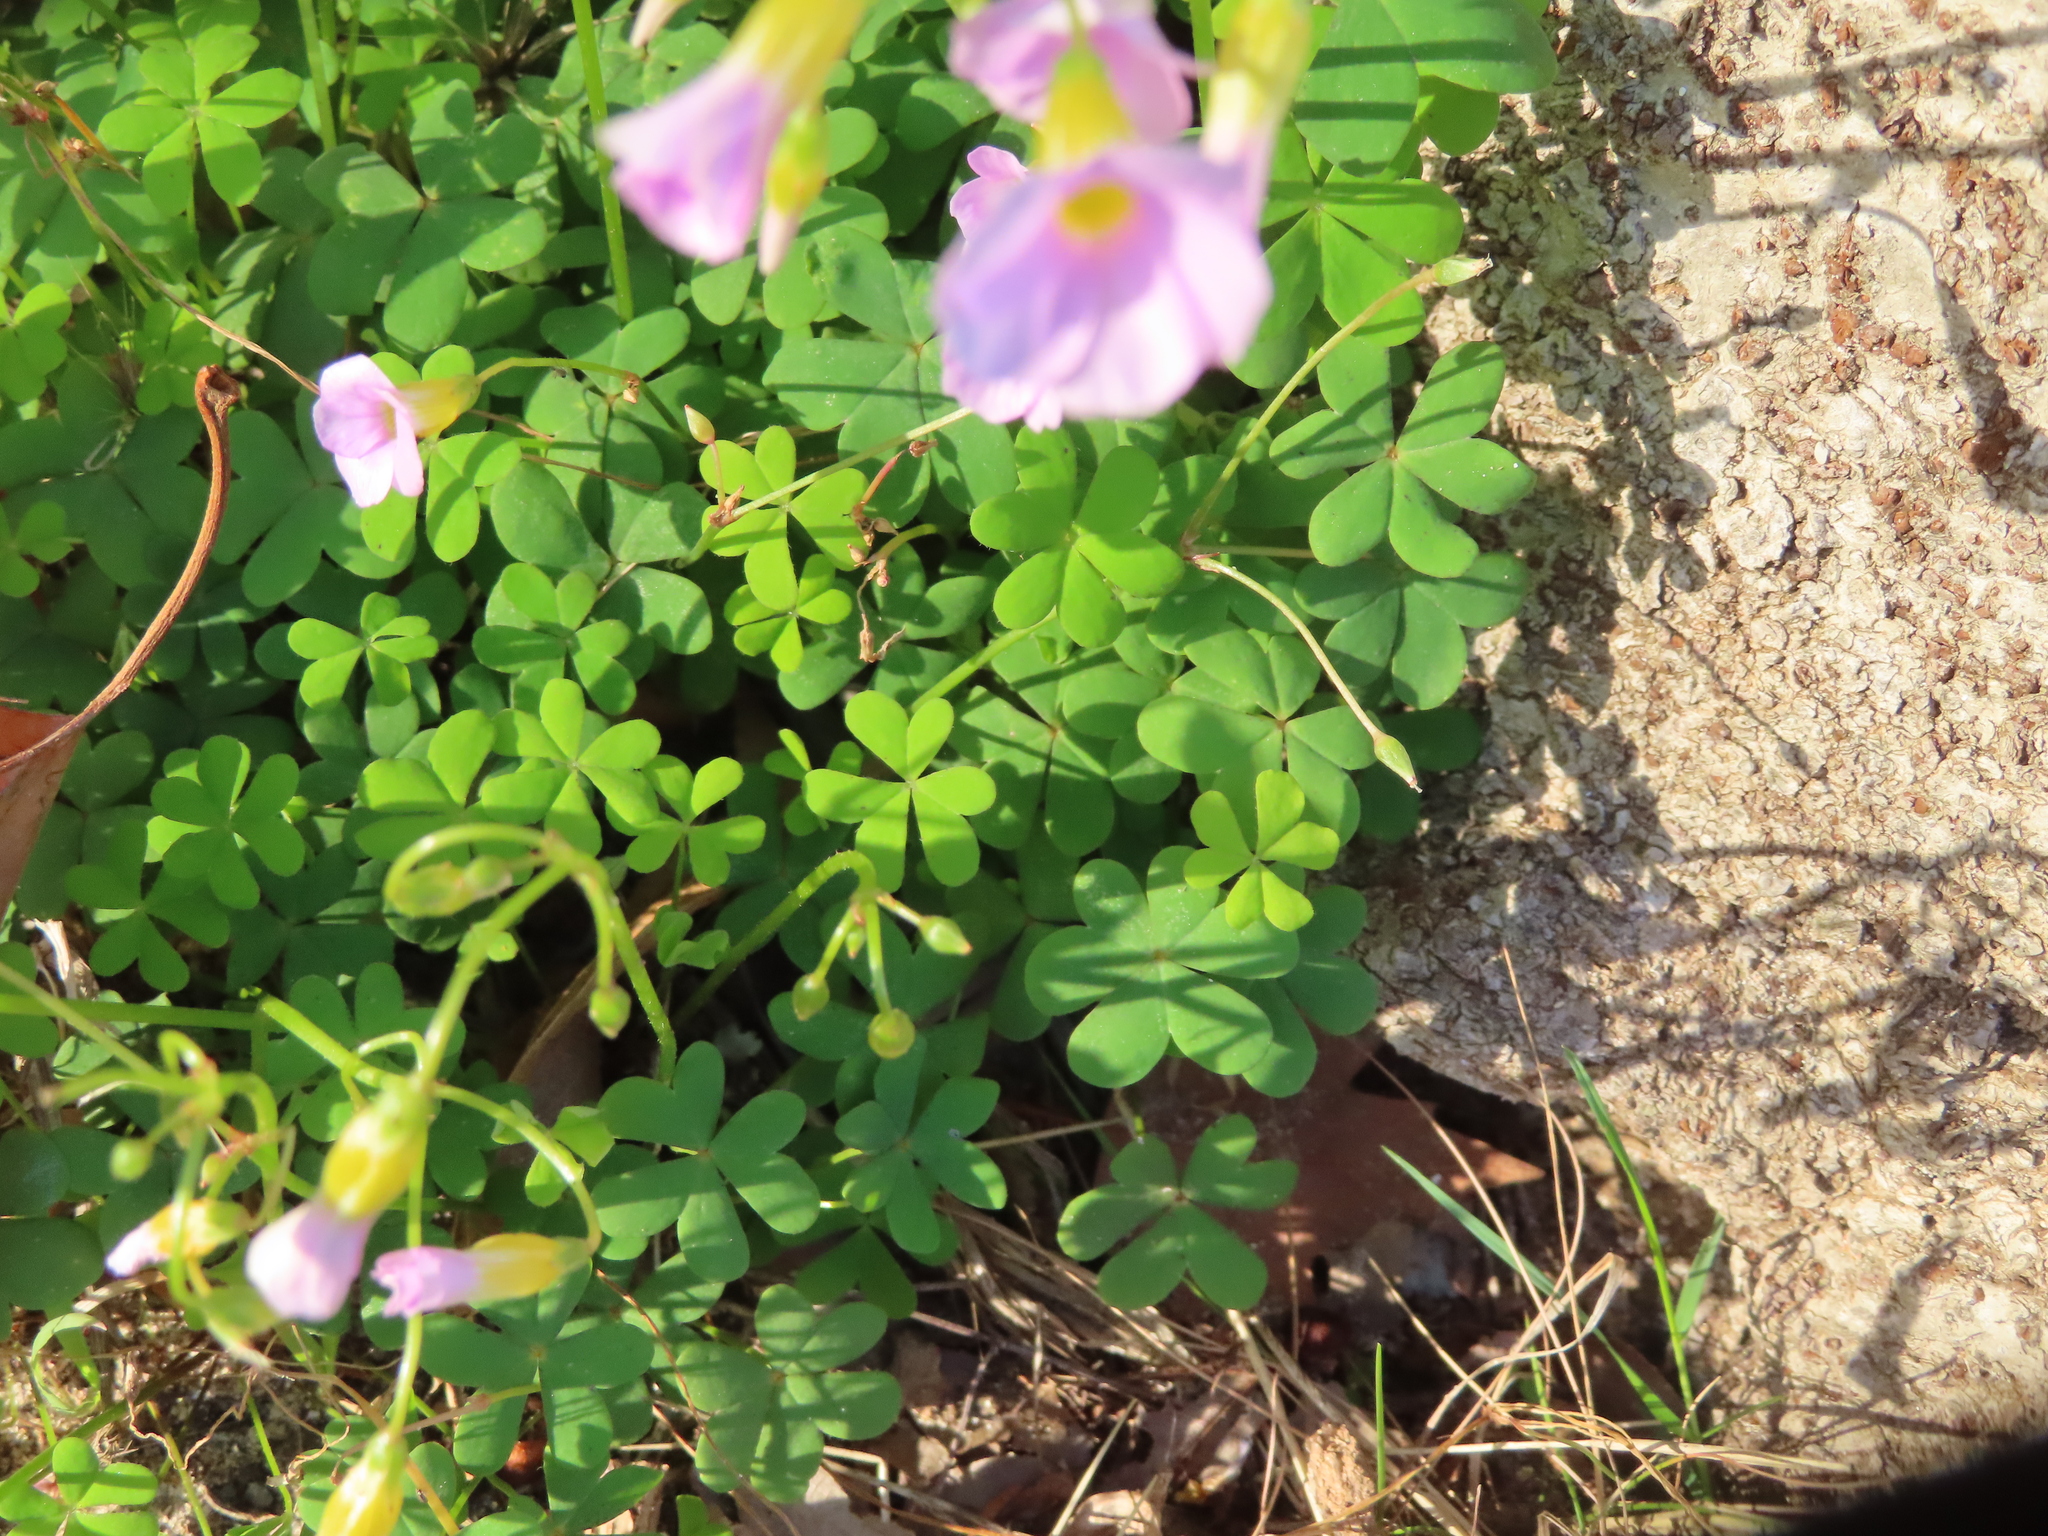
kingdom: Plantae
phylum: Tracheophyta
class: Magnoliopsida
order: Oxalidales
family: Oxalidaceae
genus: Oxalis
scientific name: Oxalis caprina
